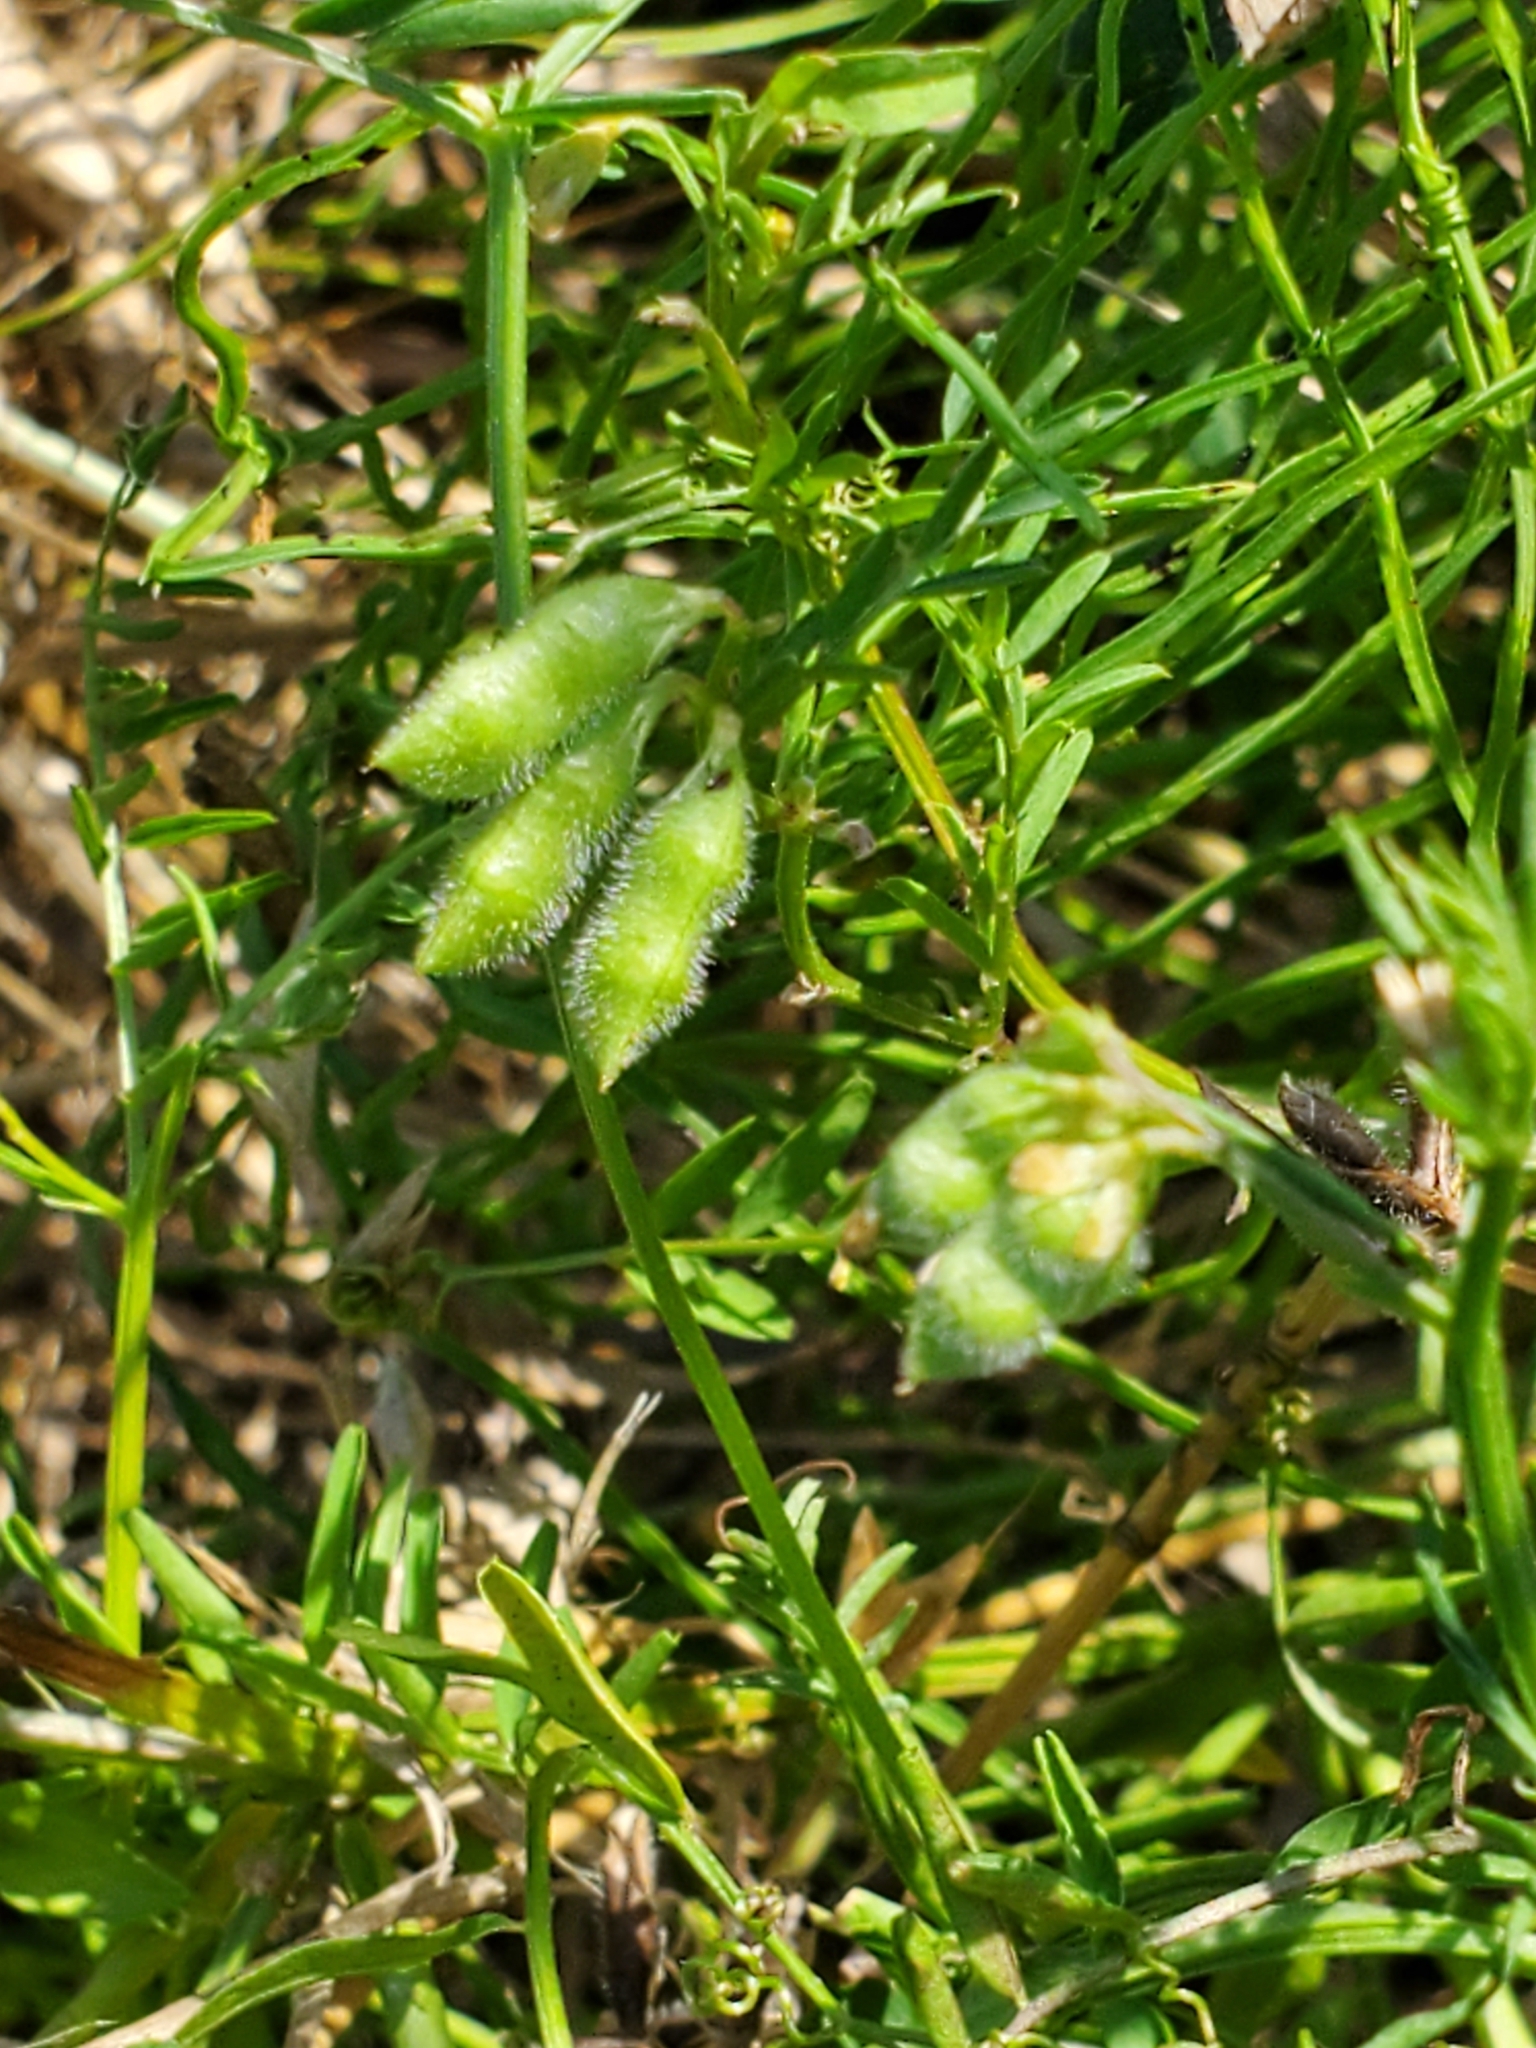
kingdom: Plantae
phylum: Tracheophyta
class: Magnoliopsida
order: Fabales
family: Fabaceae
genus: Vicia
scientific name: Vicia hirsuta
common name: Tiny vetch
